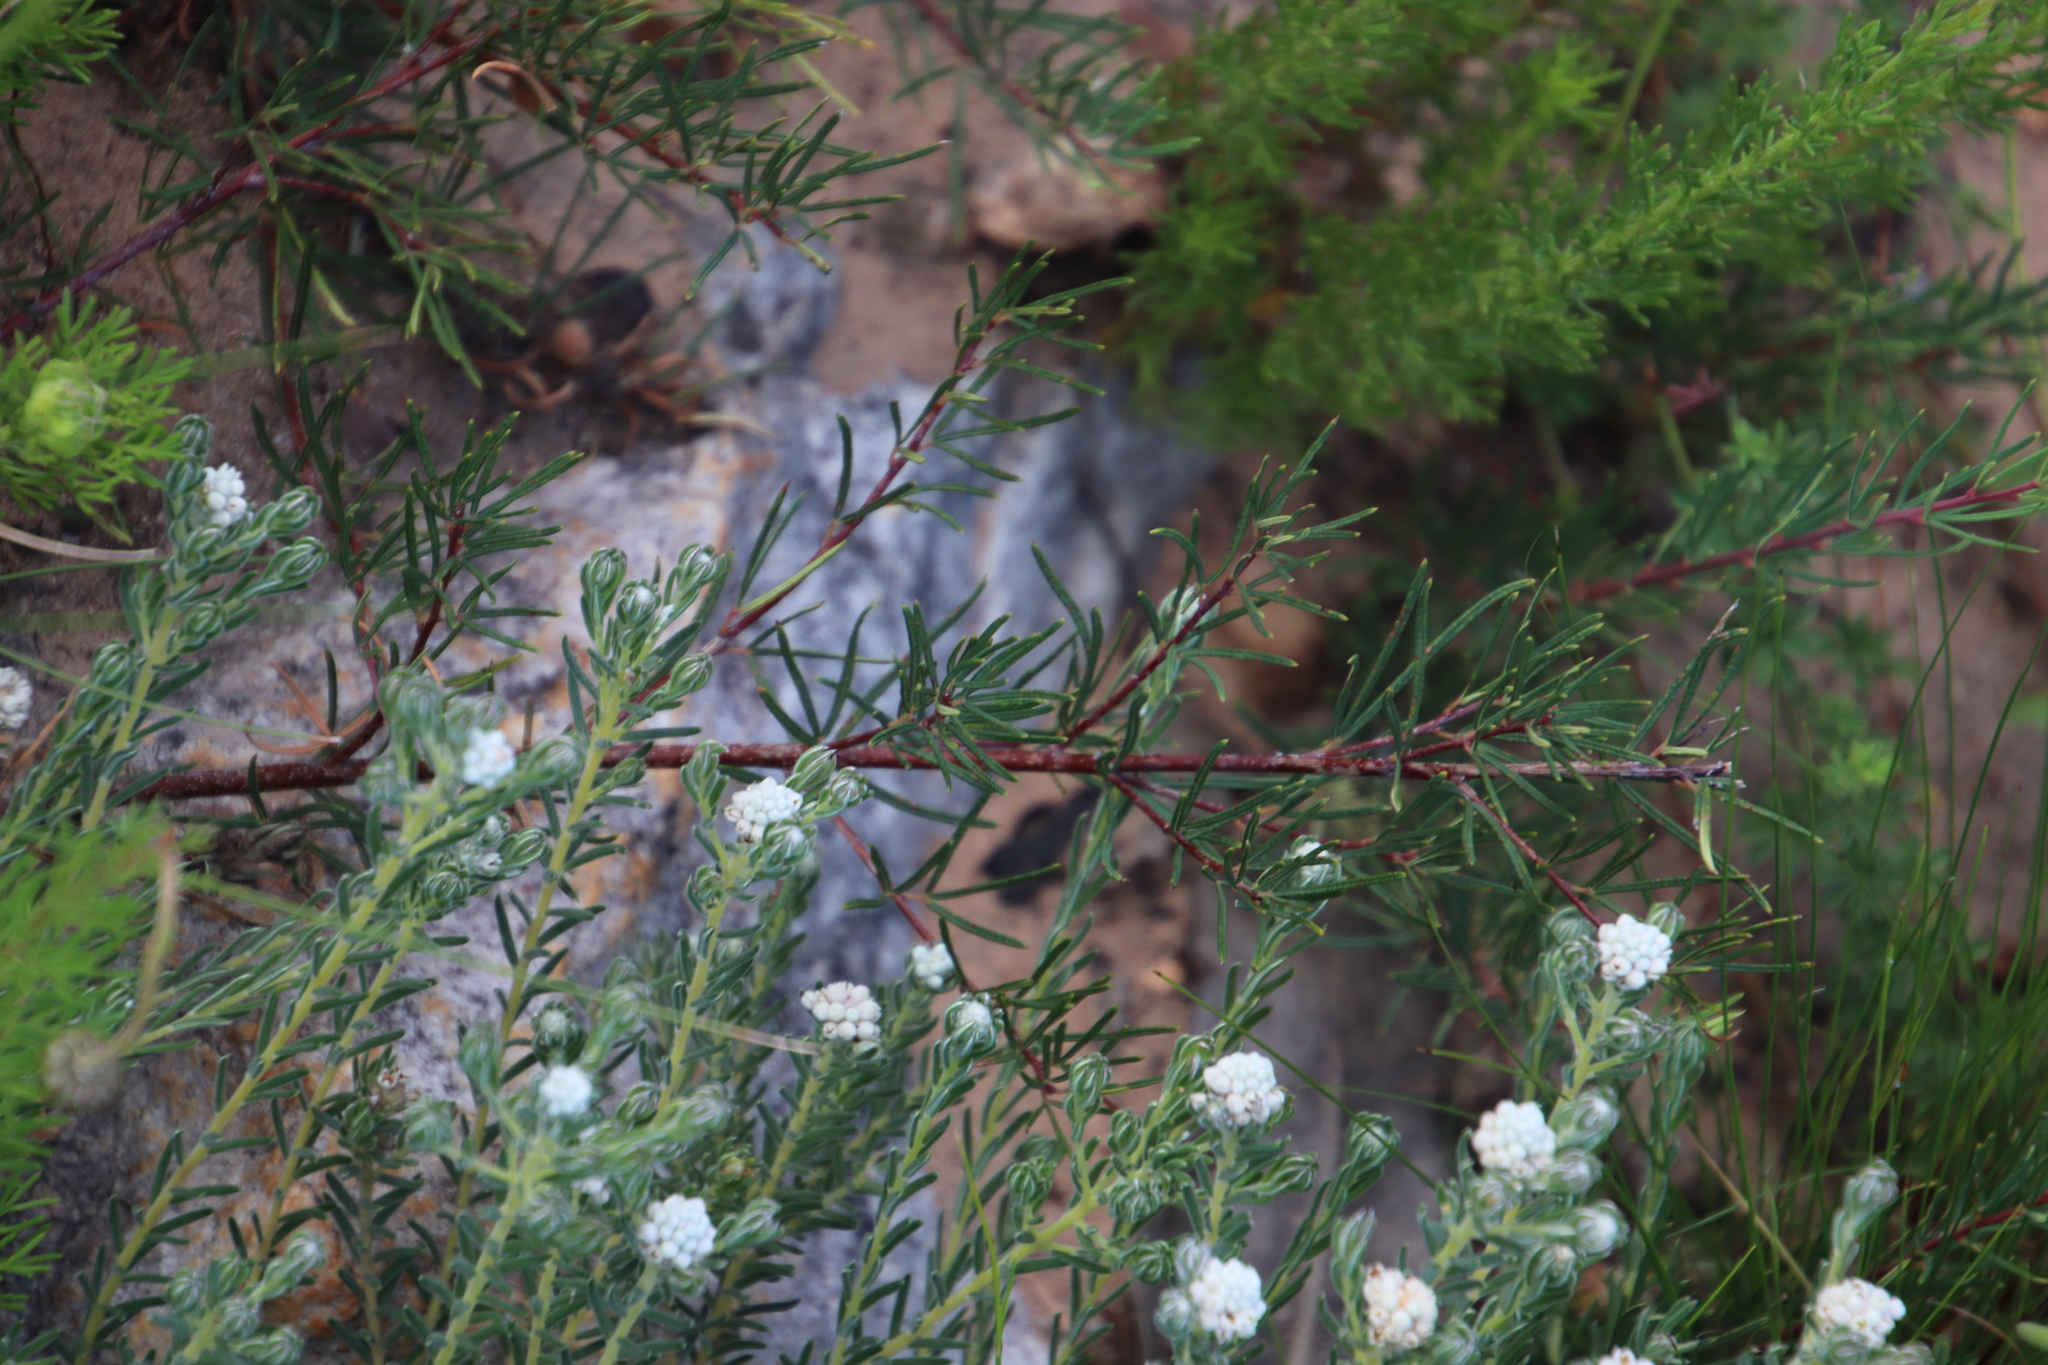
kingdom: Plantae
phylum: Tracheophyta
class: Magnoliopsida
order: Sapindales
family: Anacardiaceae
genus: Searsia
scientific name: Searsia rosmarinifolia
